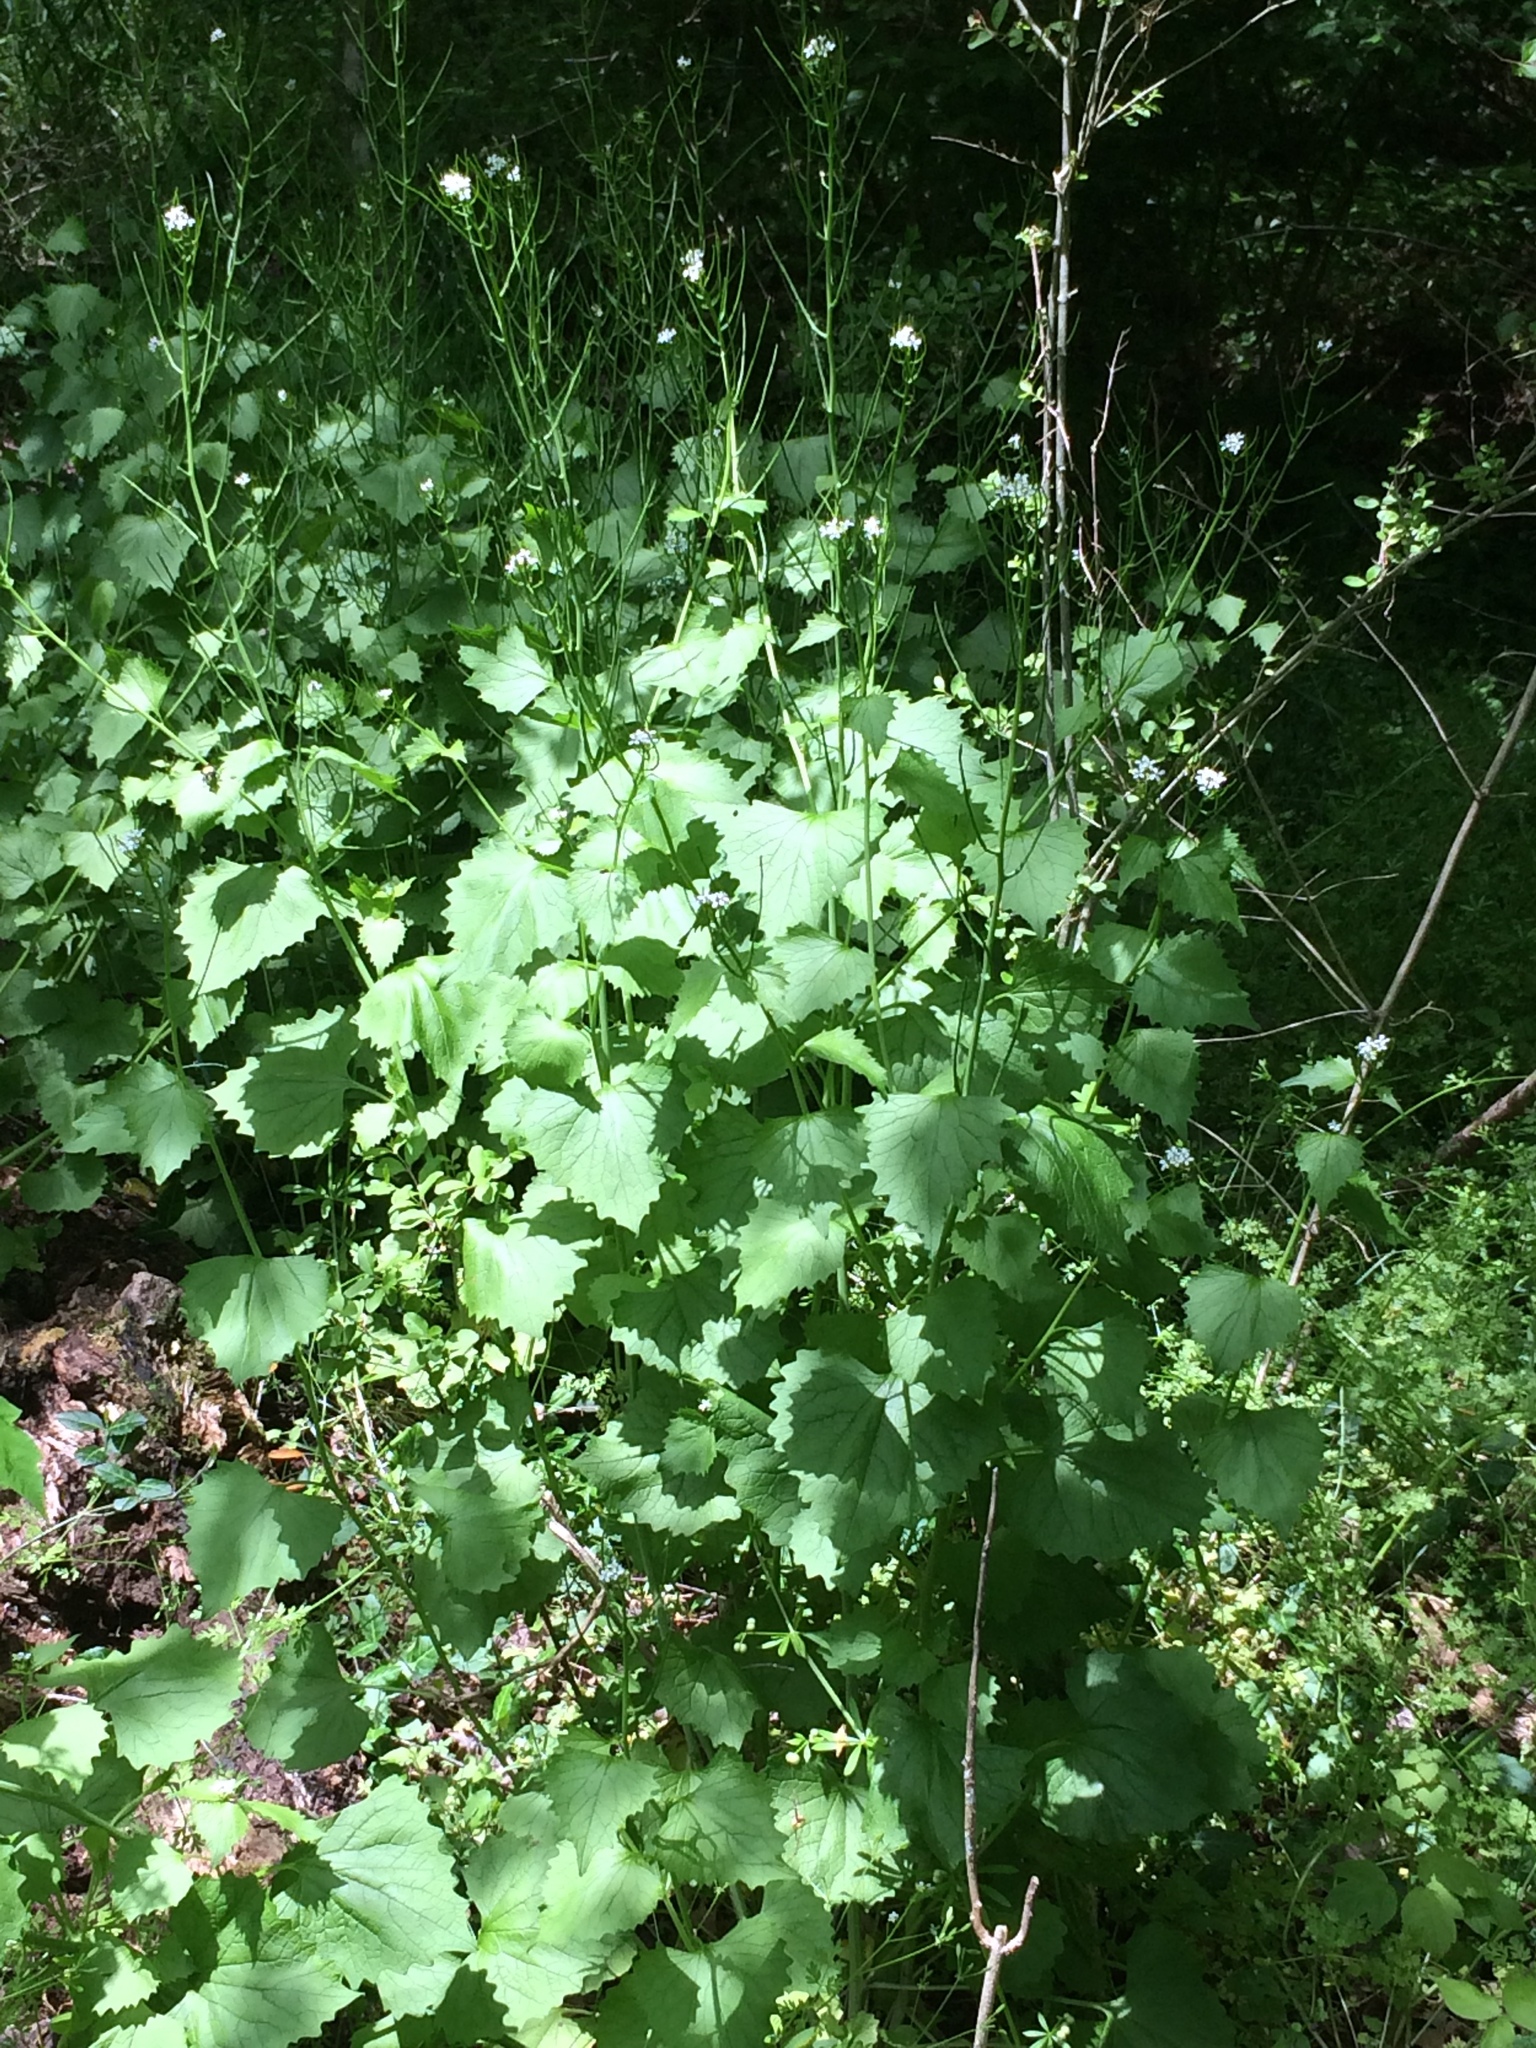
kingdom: Plantae
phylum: Tracheophyta
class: Magnoliopsida
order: Brassicales
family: Brassicaceae
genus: Alliaria
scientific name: Alliaria petiolata
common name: Garlic mustard
